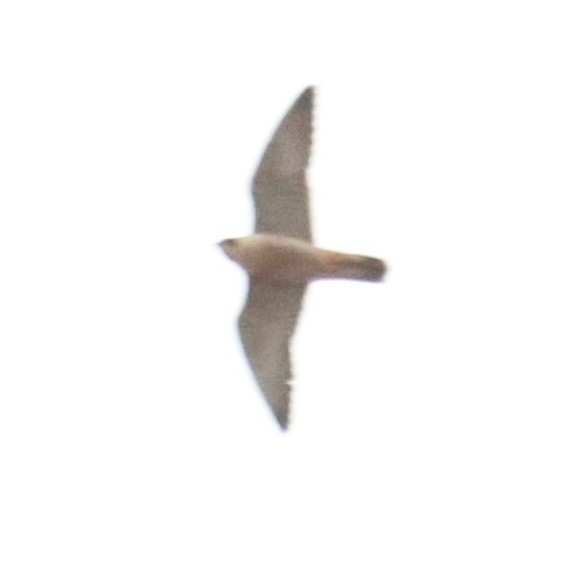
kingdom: Animalia
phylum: Chordata
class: Aves
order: Falconiformes
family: Falconidae
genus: Falco
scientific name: Falco peregrinus
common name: Peregrine falcon
